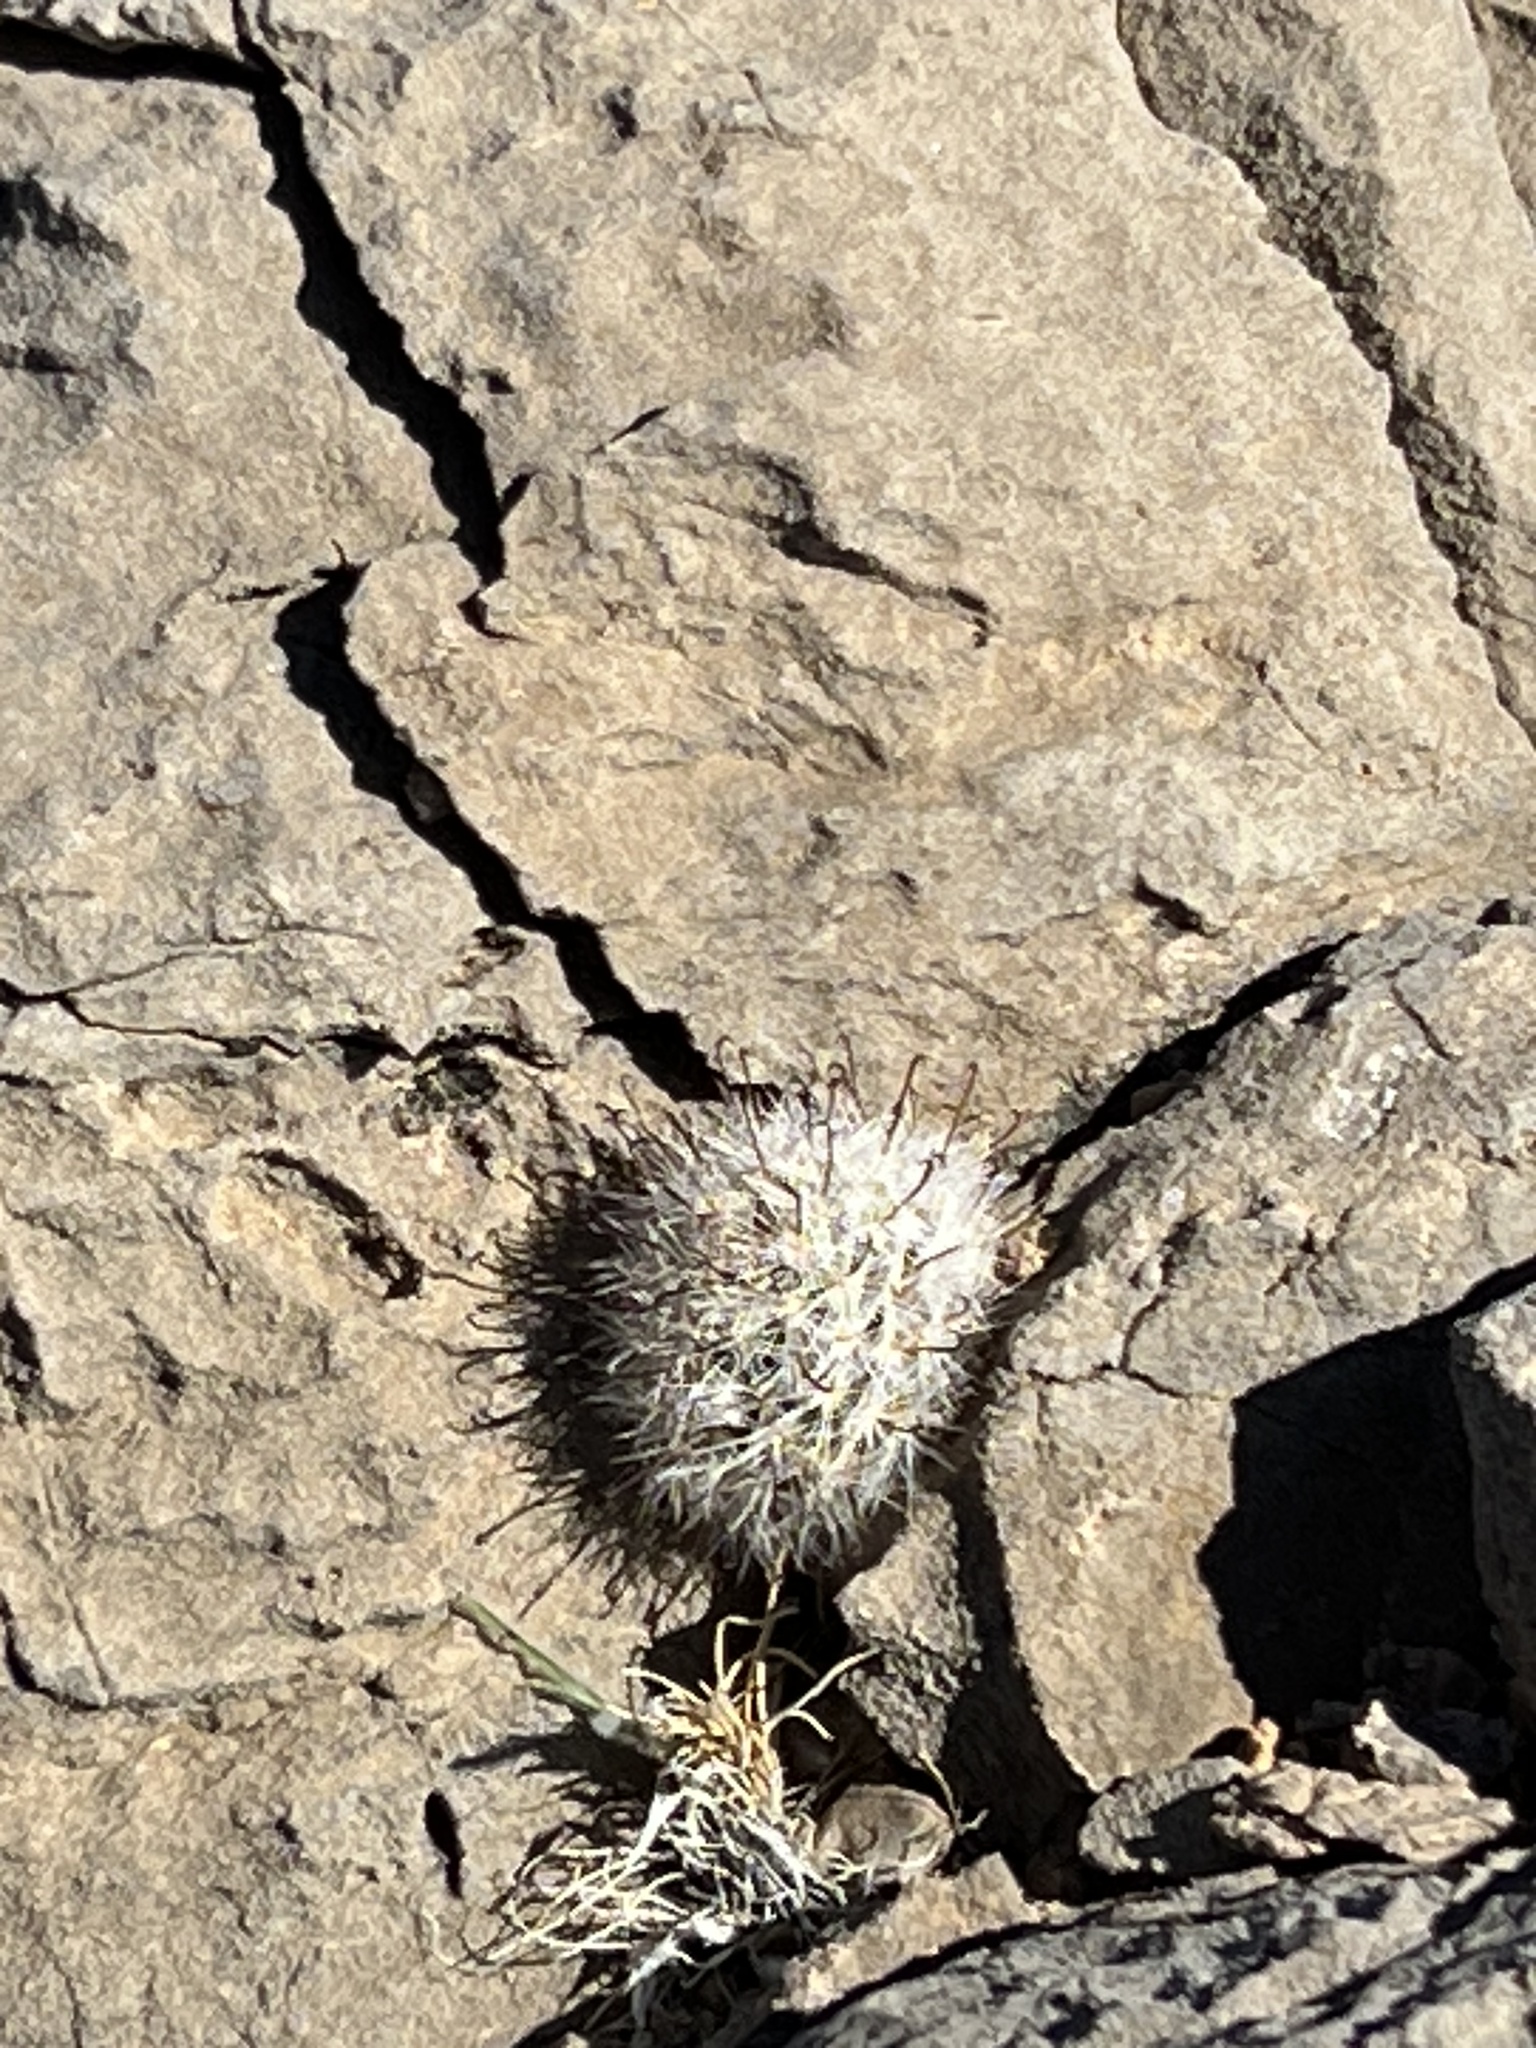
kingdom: Plantae
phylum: Tracheophyta
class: Magnoliopsida
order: Caryophyllales
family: Cactaceae
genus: Cochemiea
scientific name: Cochemiea tetrancistra
